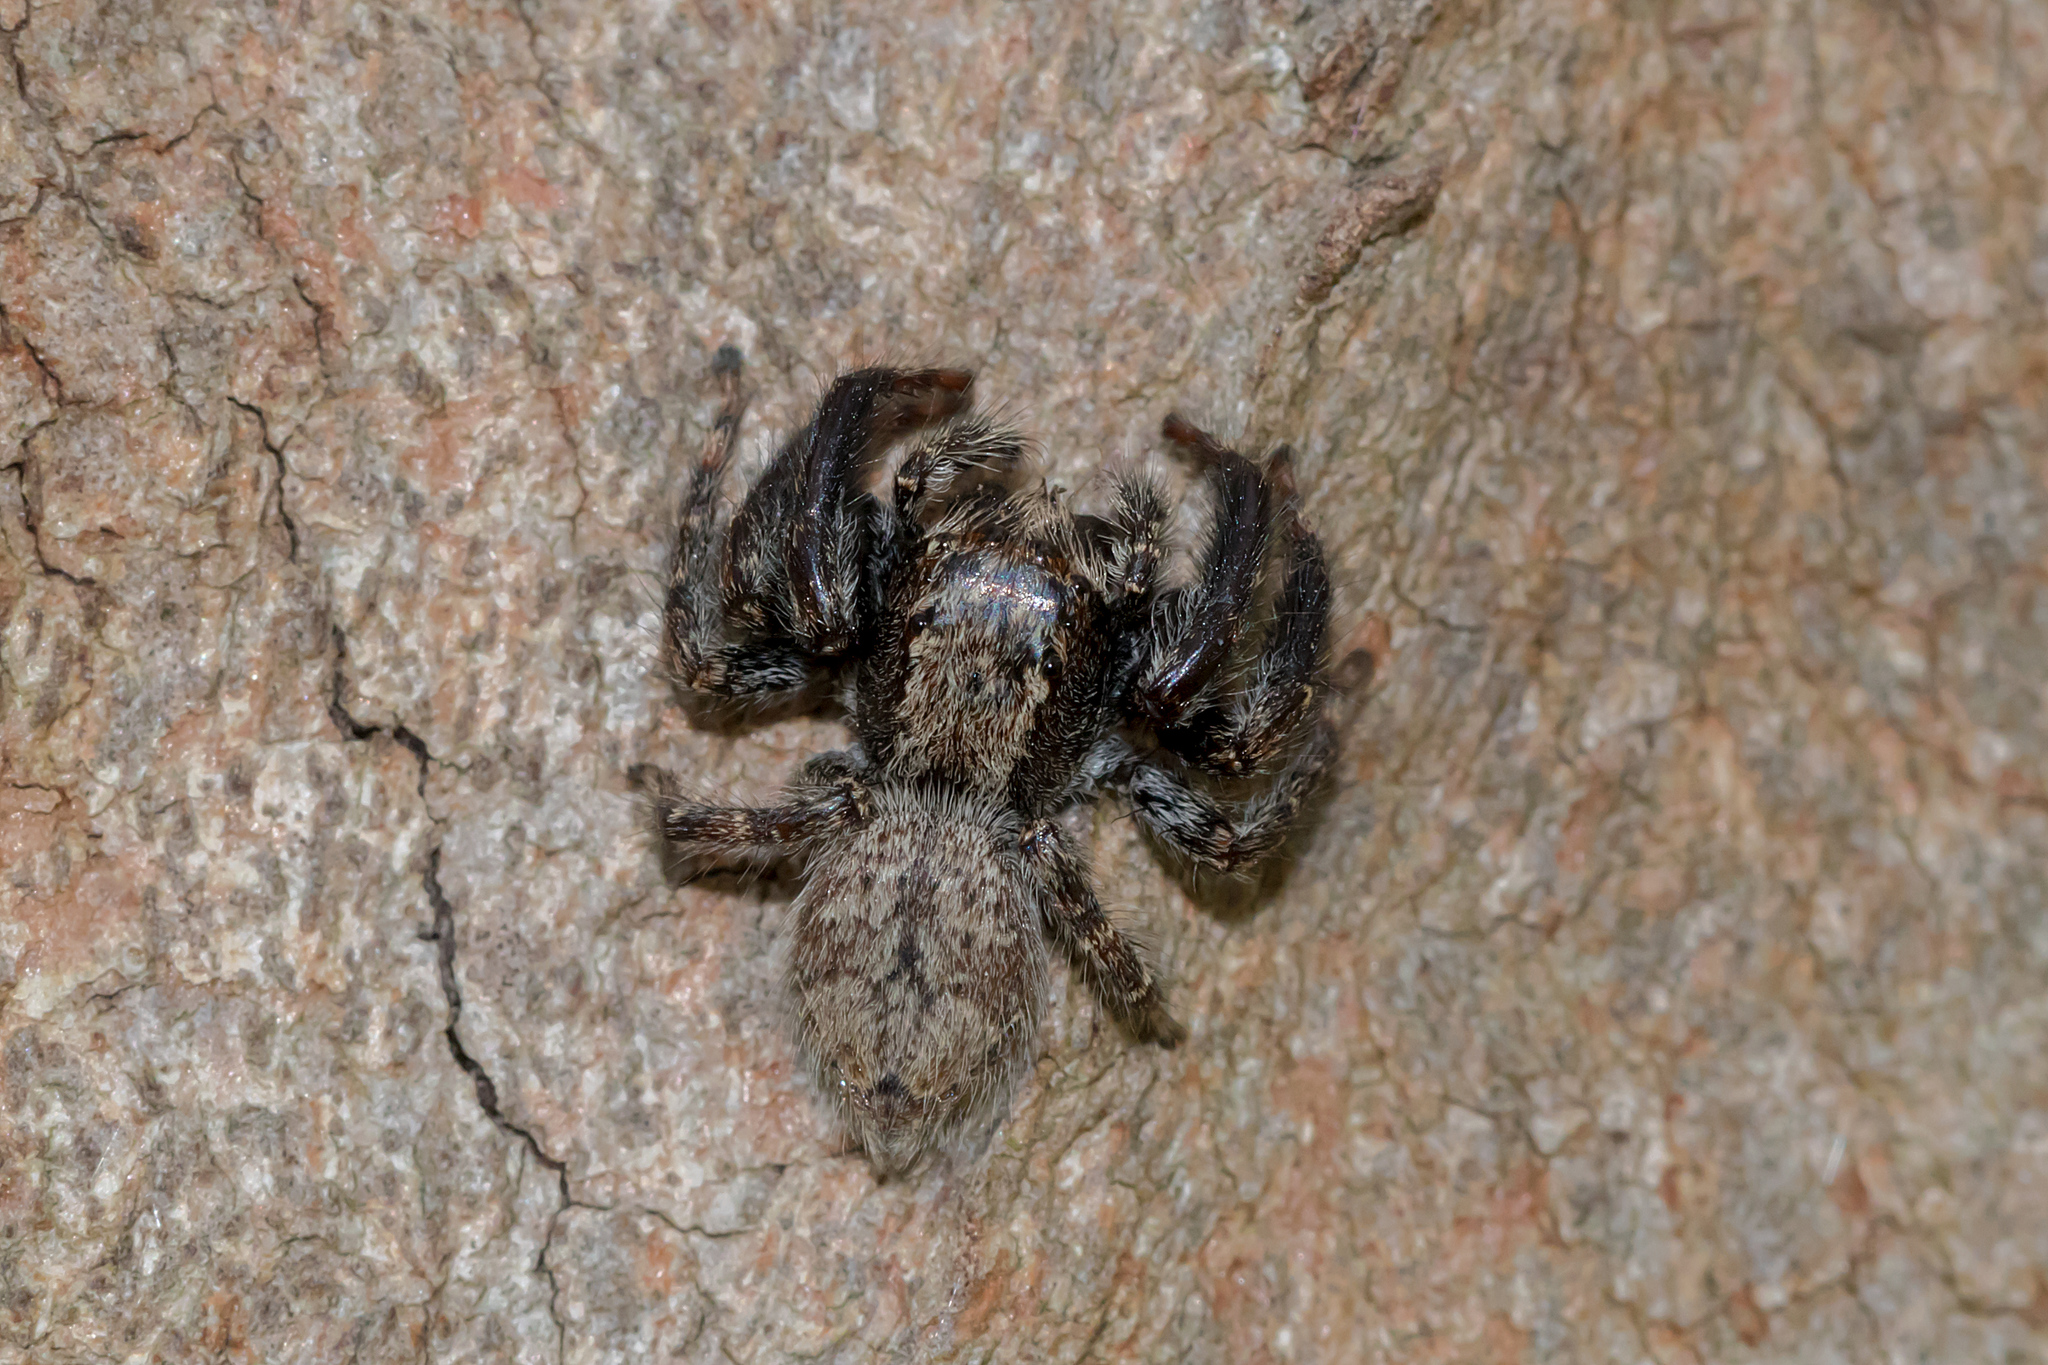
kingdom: Animalia
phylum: Arthropoda
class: Arachnida
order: Araneae
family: Salticidae
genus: Servaea
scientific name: Servaea incana
